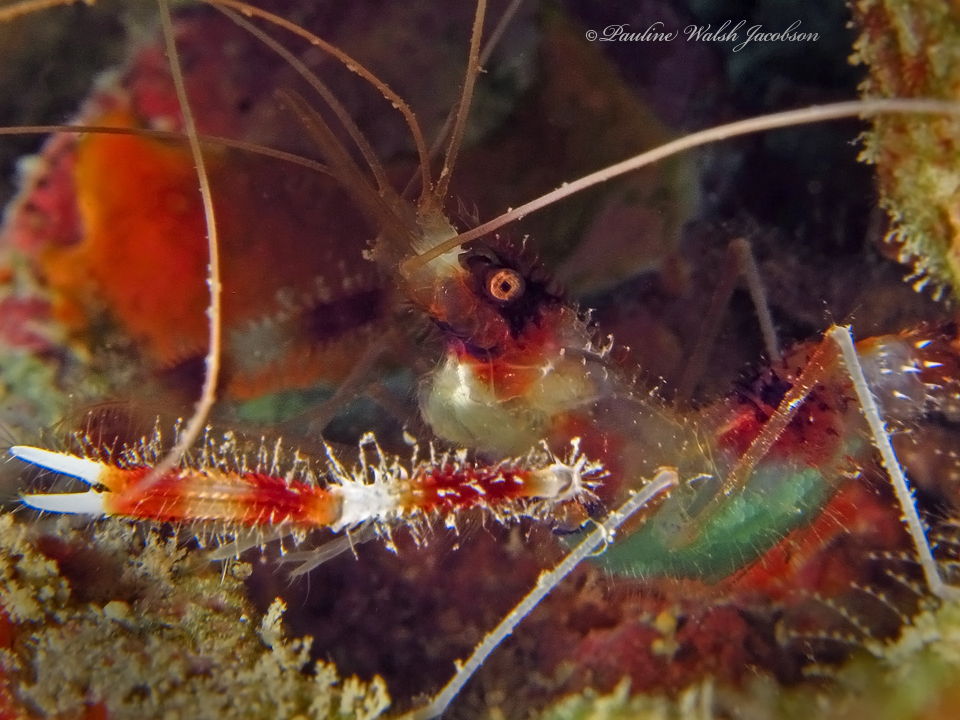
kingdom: Animalia
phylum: Arthropoda
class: Malacostraca
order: Decapoda
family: Stenopodidae
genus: Stenopus
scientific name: Stenopus hispidus
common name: Banded coral shrimp
